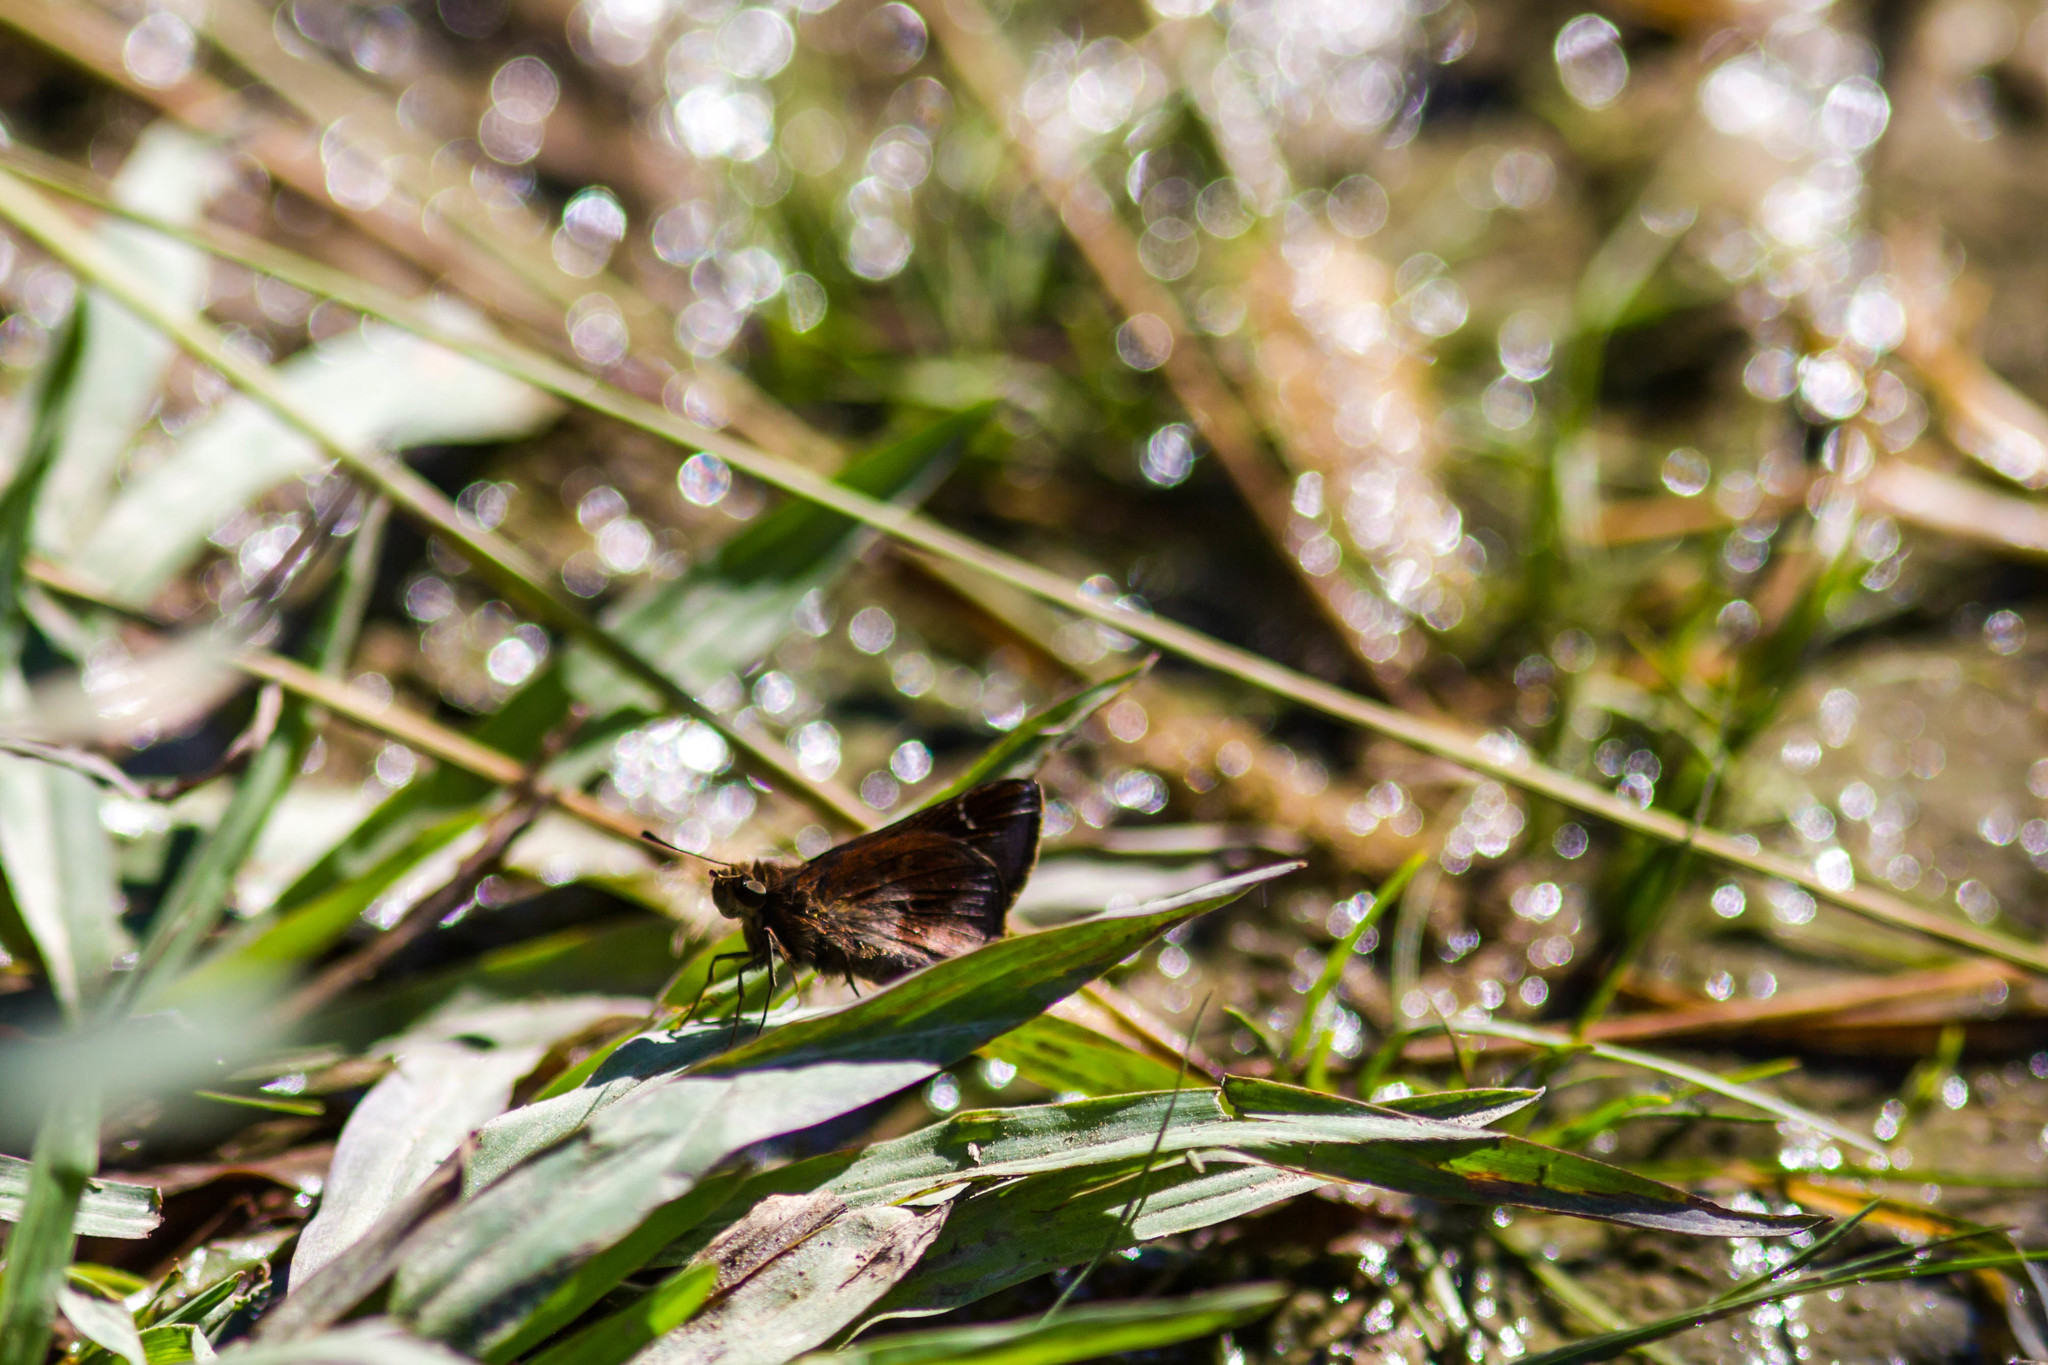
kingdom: Animalia
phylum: Arthropoda
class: Insecta
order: Lepidoptera
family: Hesperiidae
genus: Lerema
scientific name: Lerema accius
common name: Clouded skipper
